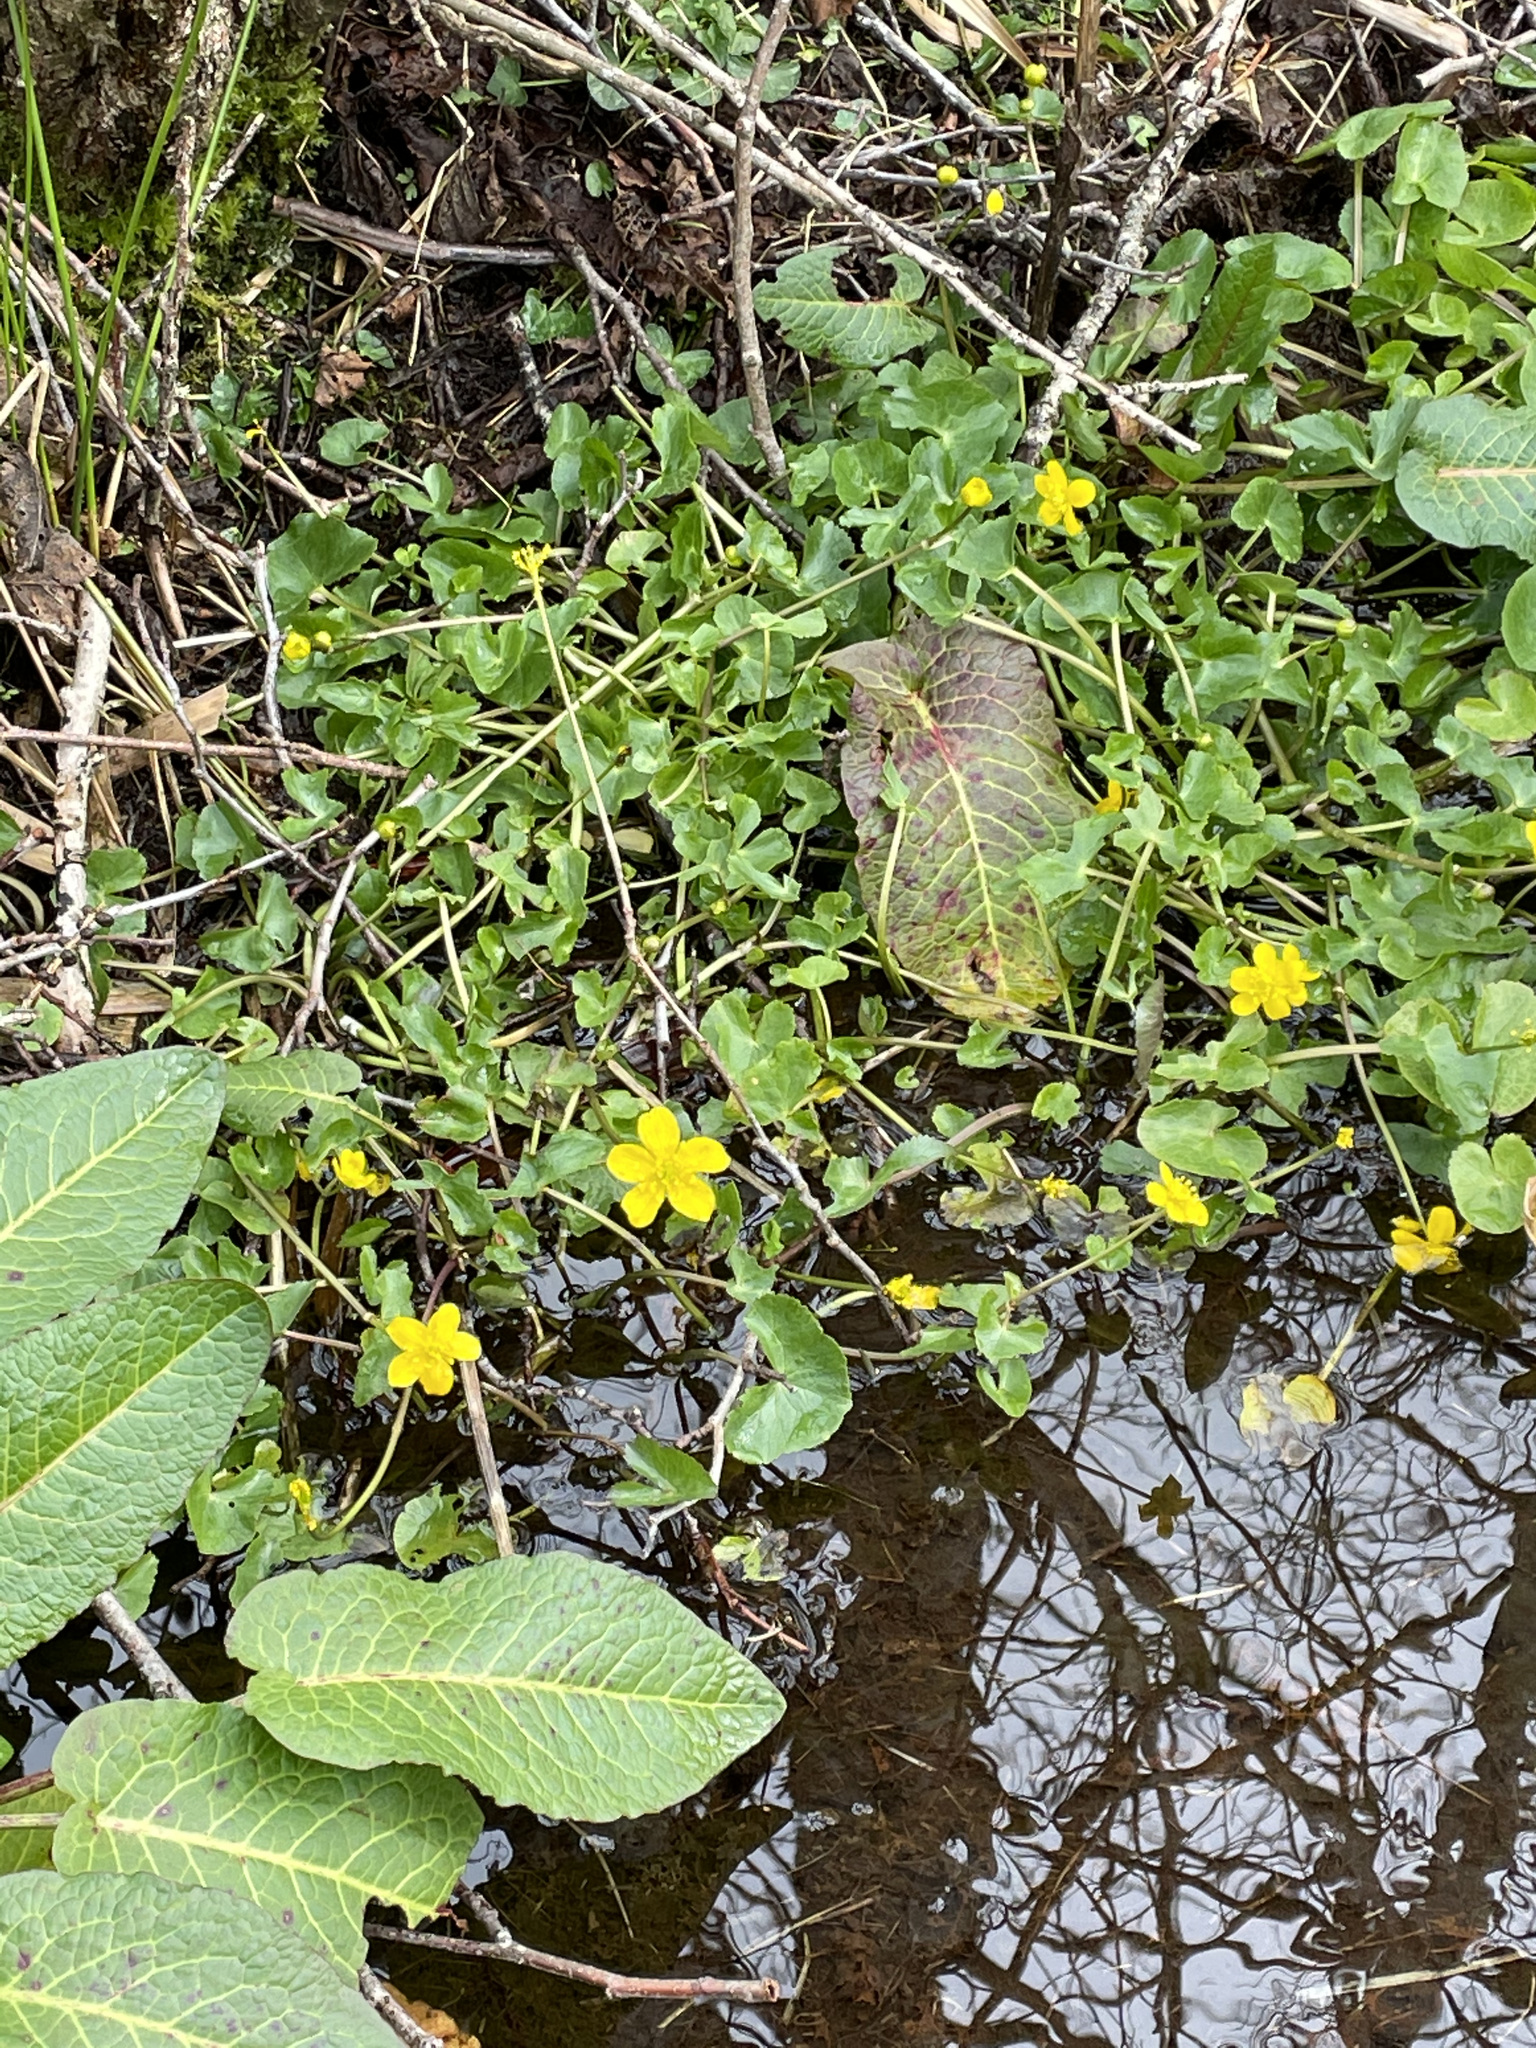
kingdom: Plantae
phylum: Tracheophyta
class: Magnoliopsida
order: Ranunculales
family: Ranunculaceae
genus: Caltha
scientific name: Caltha palustris
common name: Marsh marigold
